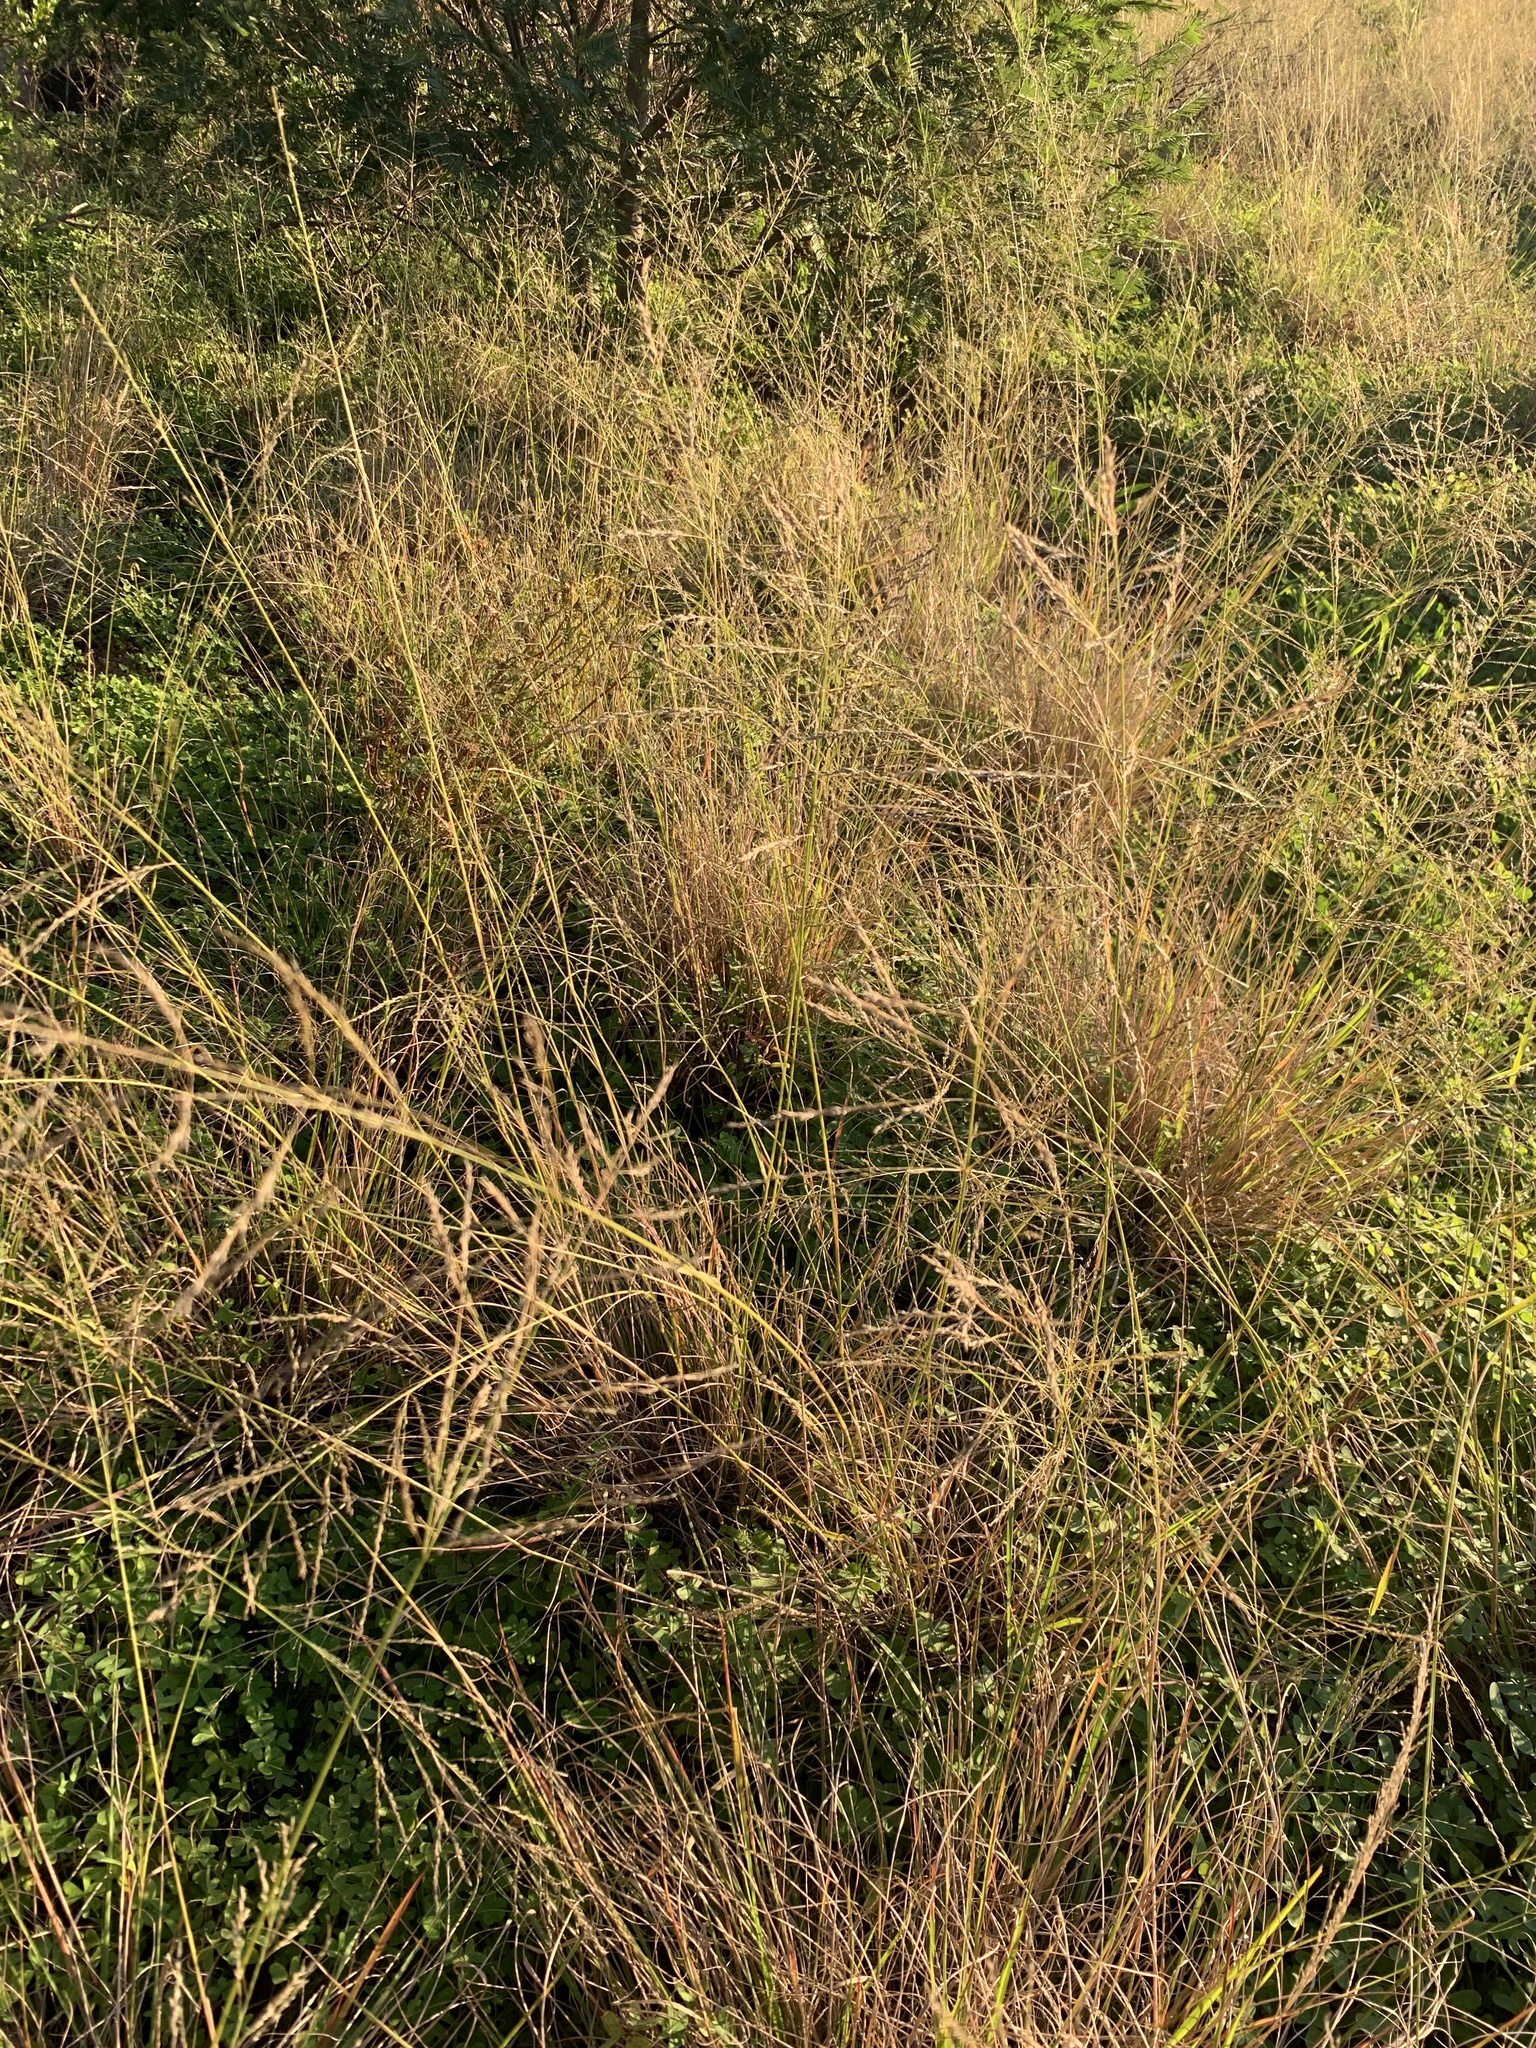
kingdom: Plantae
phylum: Tracheophyta
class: Liliopsida
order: Poales
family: Poaceae
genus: Eragrostis
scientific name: Eragrostis curvula
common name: African love-grass
